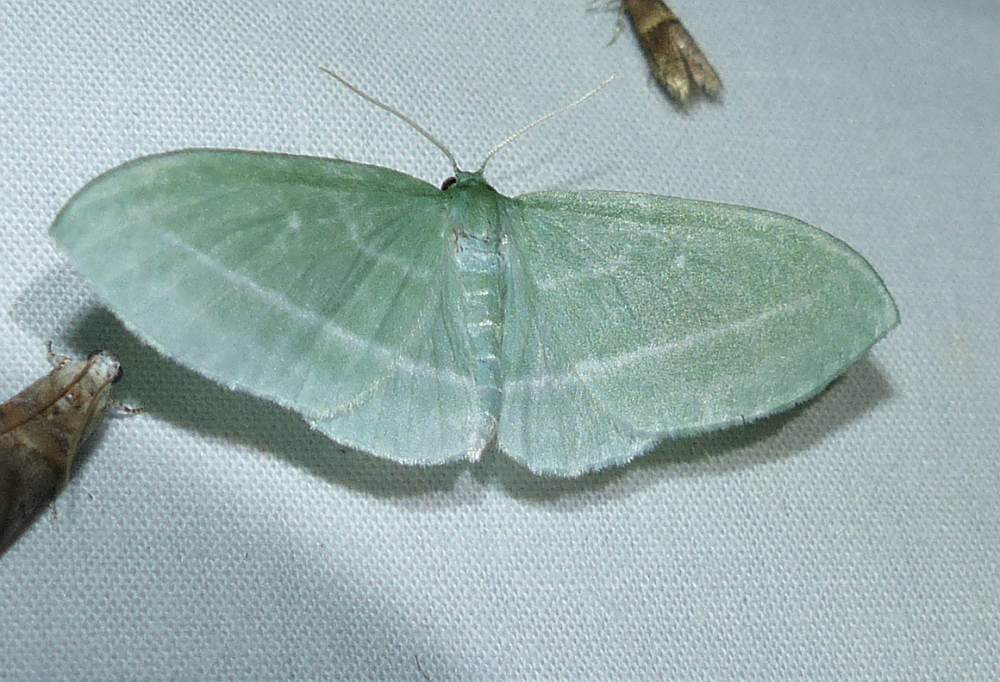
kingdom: Animalia
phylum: Arthropoda
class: Insecta
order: Lepidoptera
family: Geometridae
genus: Dyspteris
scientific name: Dyspteris abortivaria
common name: Bad-wing
